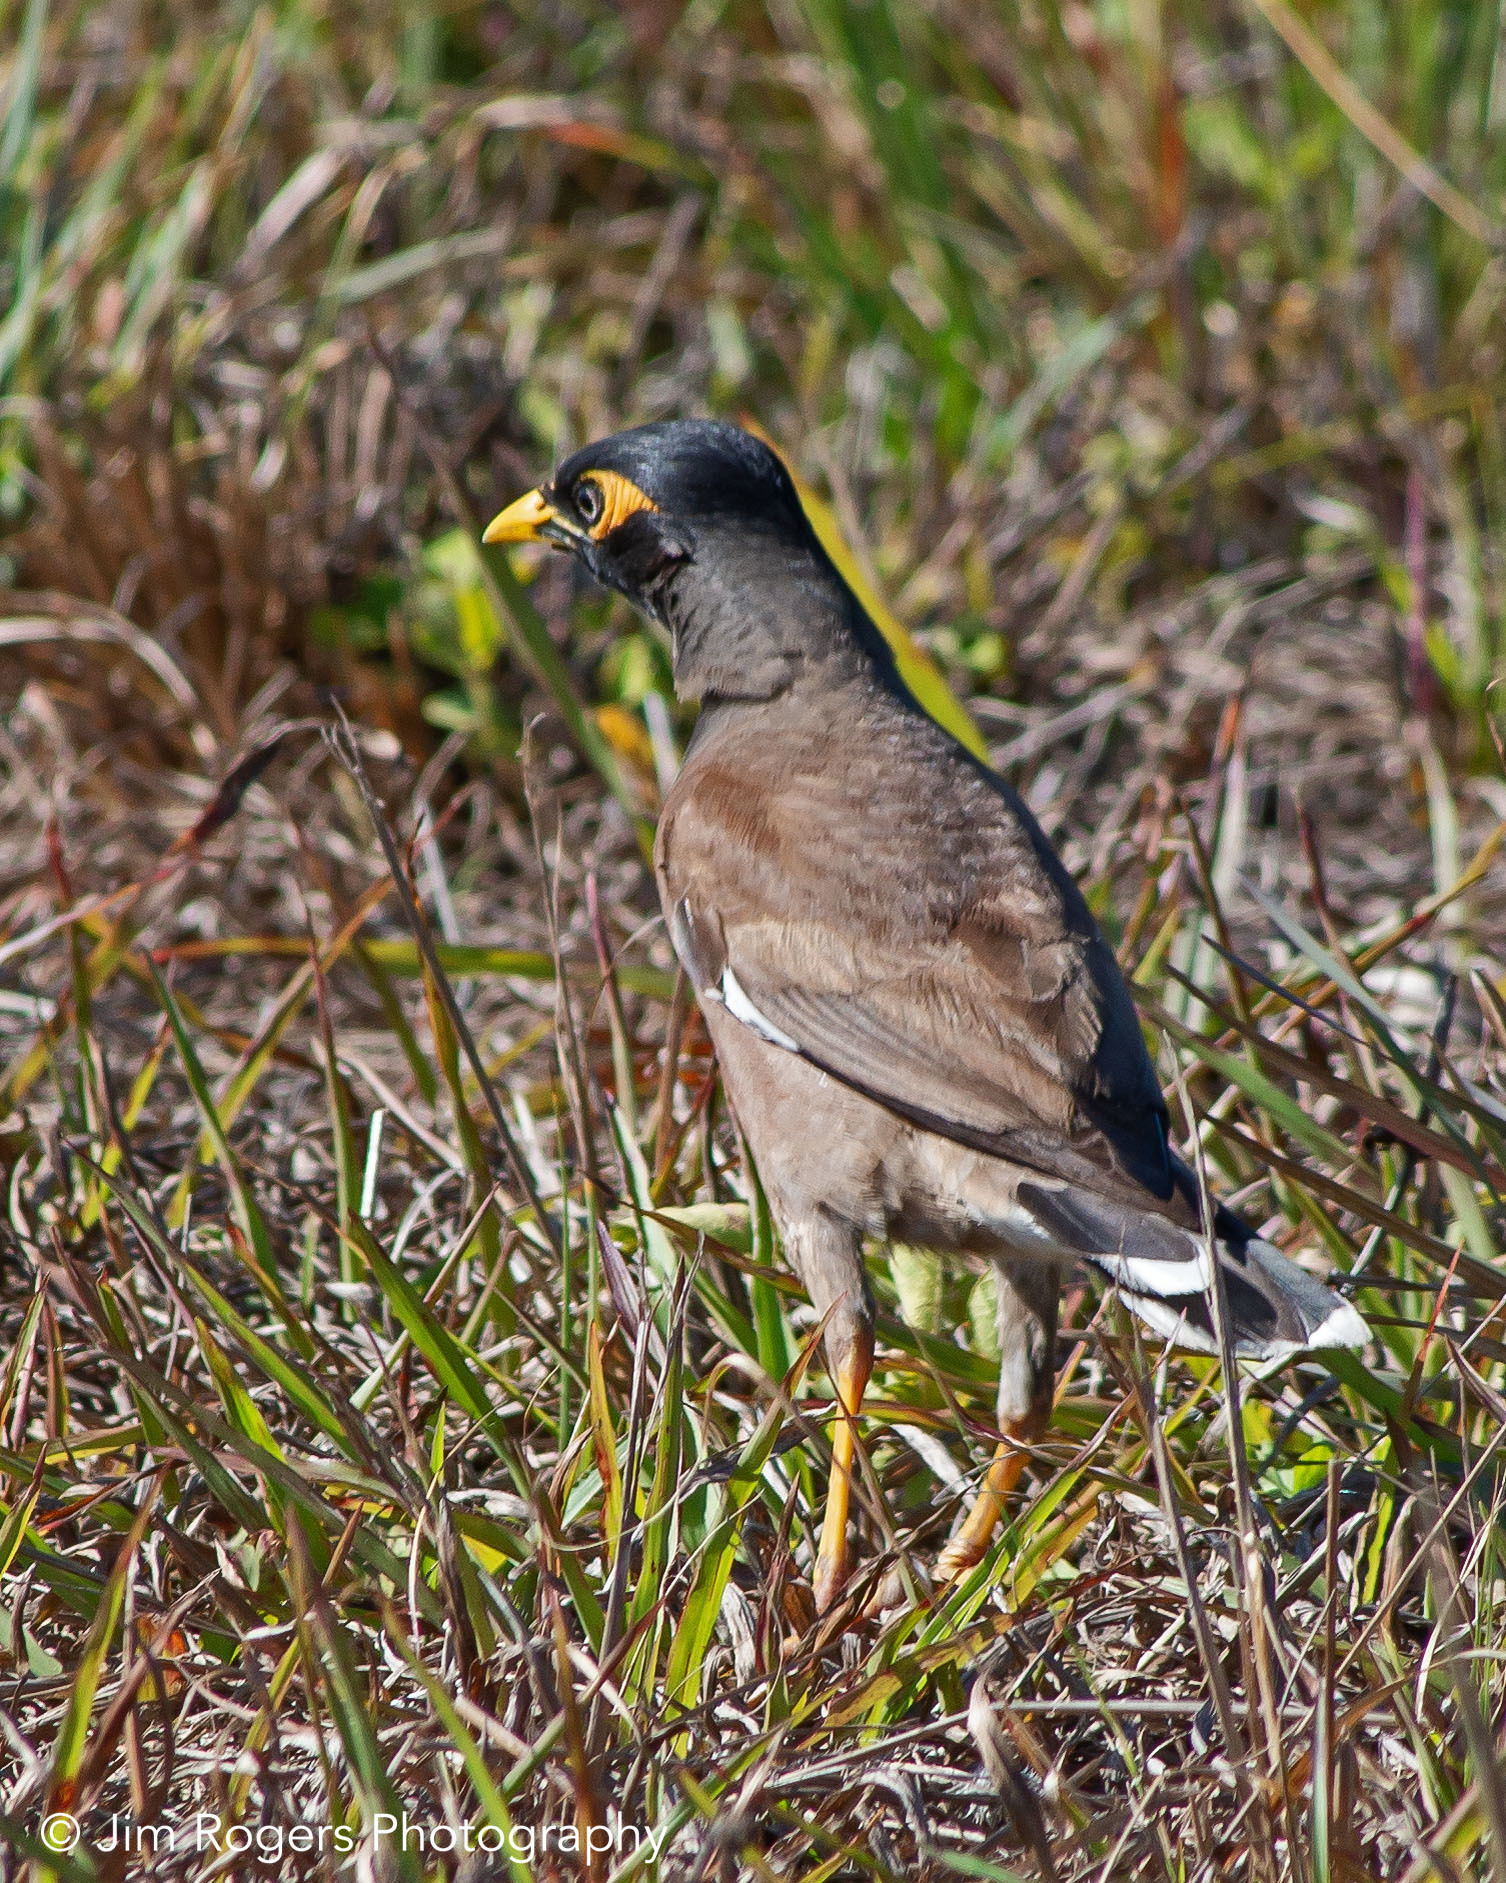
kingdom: Animalia
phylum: Chordata
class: Aves
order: Passeriformes
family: Sturnidae
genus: Acridotheres
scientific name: Acridotheres tristis
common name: Common myna
